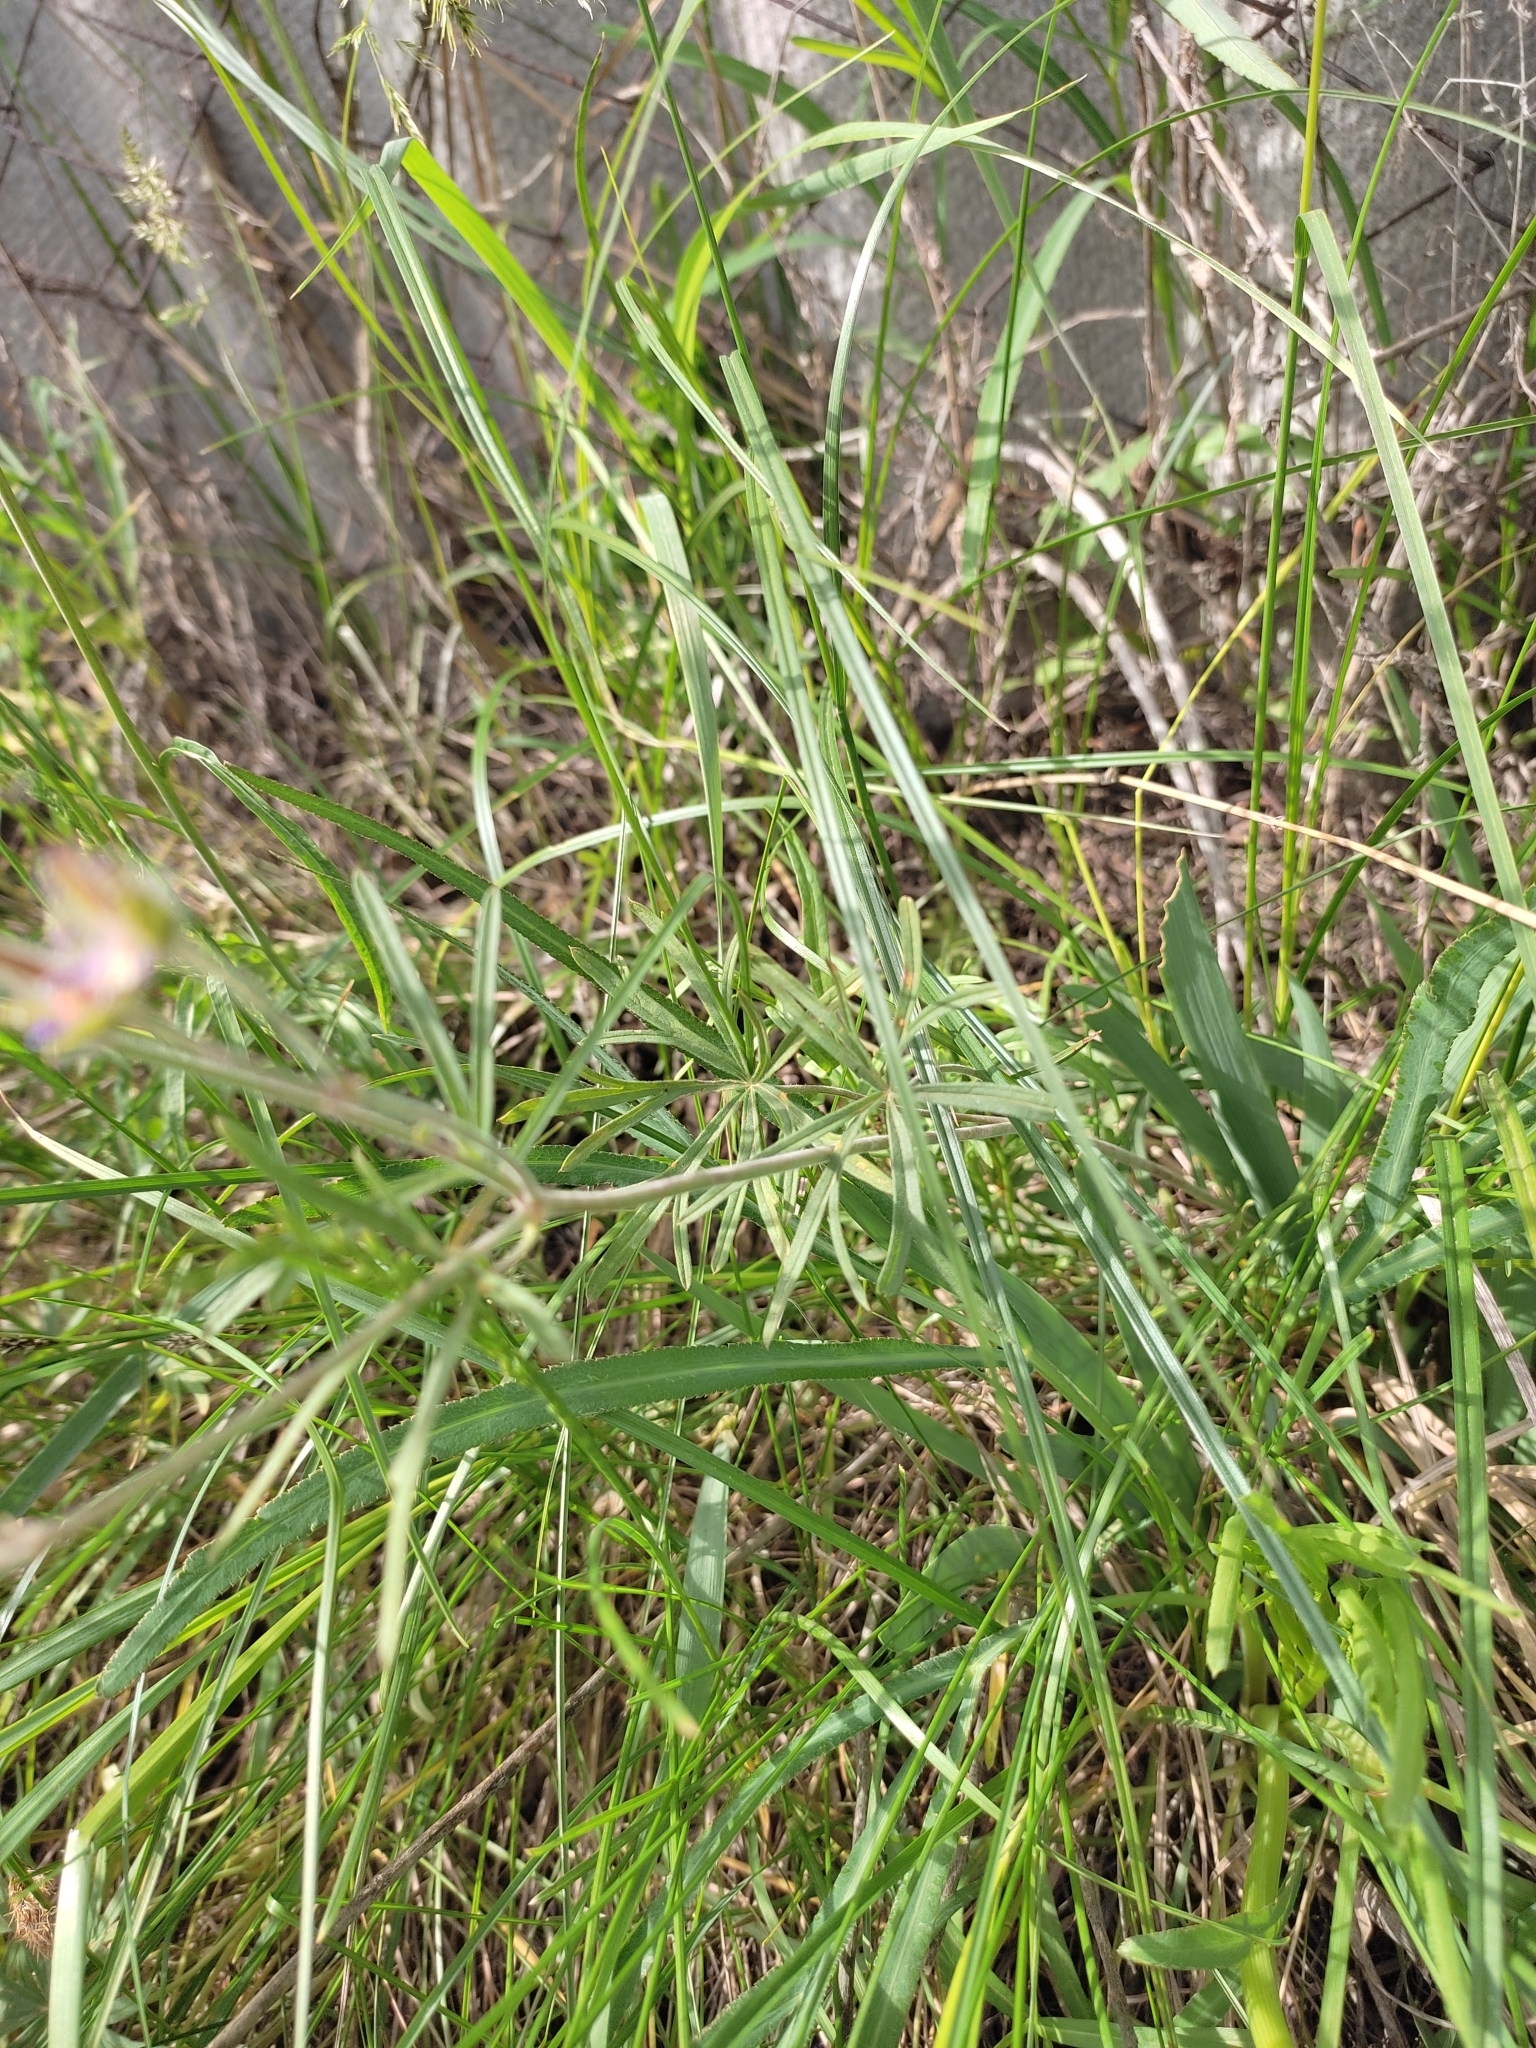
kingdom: Plantae
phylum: Tracheophyta
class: Magnoliopsida
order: Geraniales
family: Geraniaceae
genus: Geranium
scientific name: Geranium linearilobum
